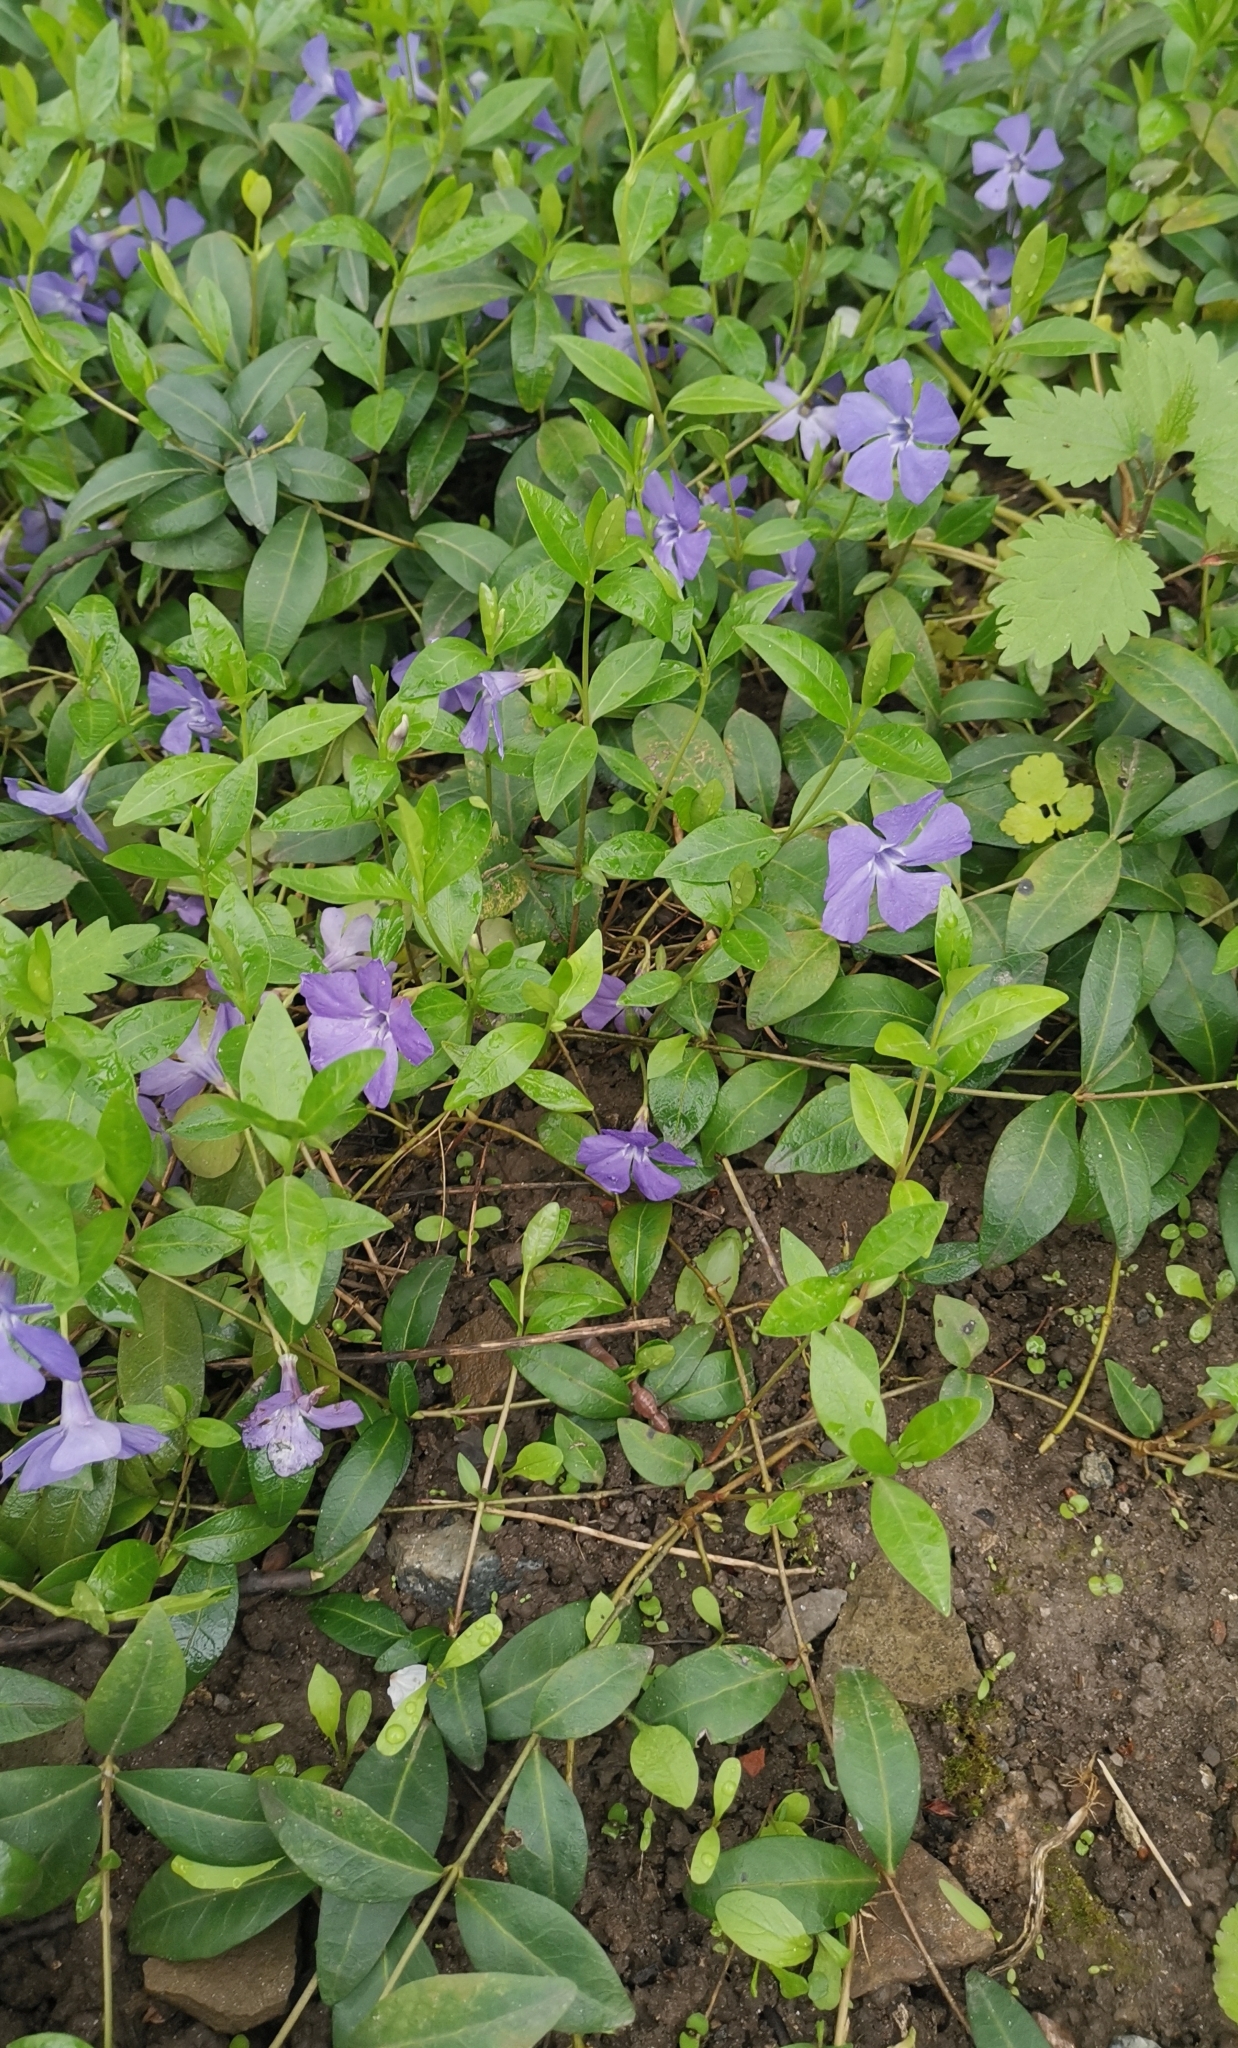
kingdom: Plantae
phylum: Tracheophyta
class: Magnoliopsida
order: Gentianales
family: Apocynaceae
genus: Vinca
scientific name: Vinca minor
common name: Lesser periwinkle
